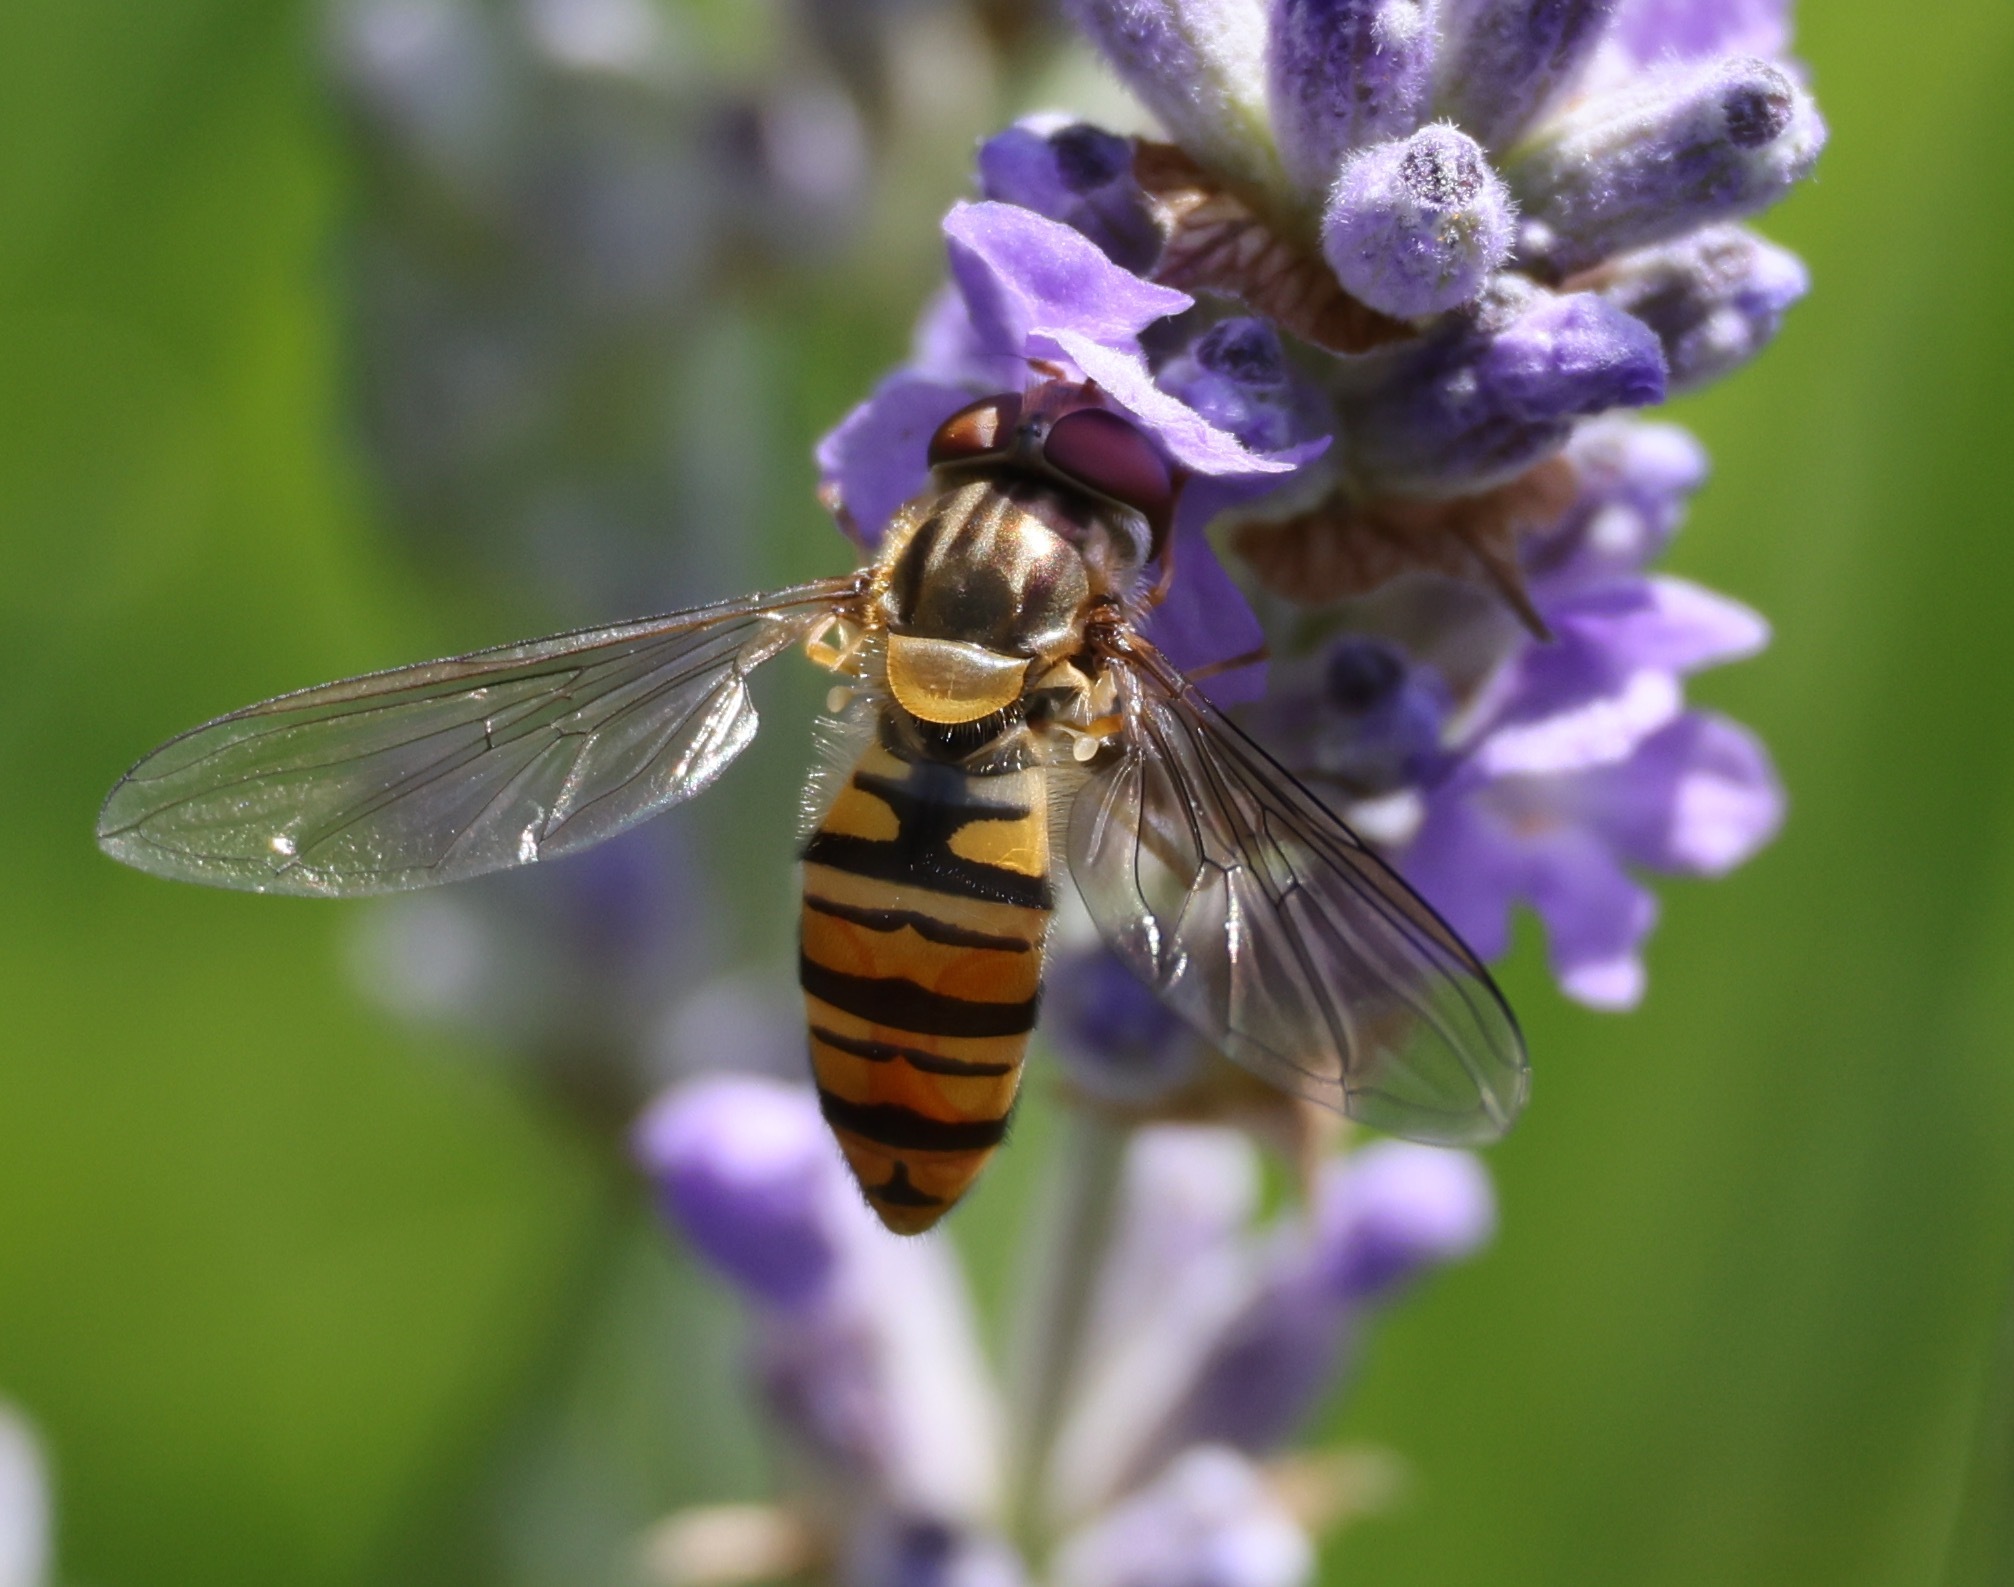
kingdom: Animalia
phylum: Arthropoda
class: Insecta
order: Diptera
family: Syrphidae
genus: Episyrphus
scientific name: Episyrphus balteatus
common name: Marmalade hoverfly
